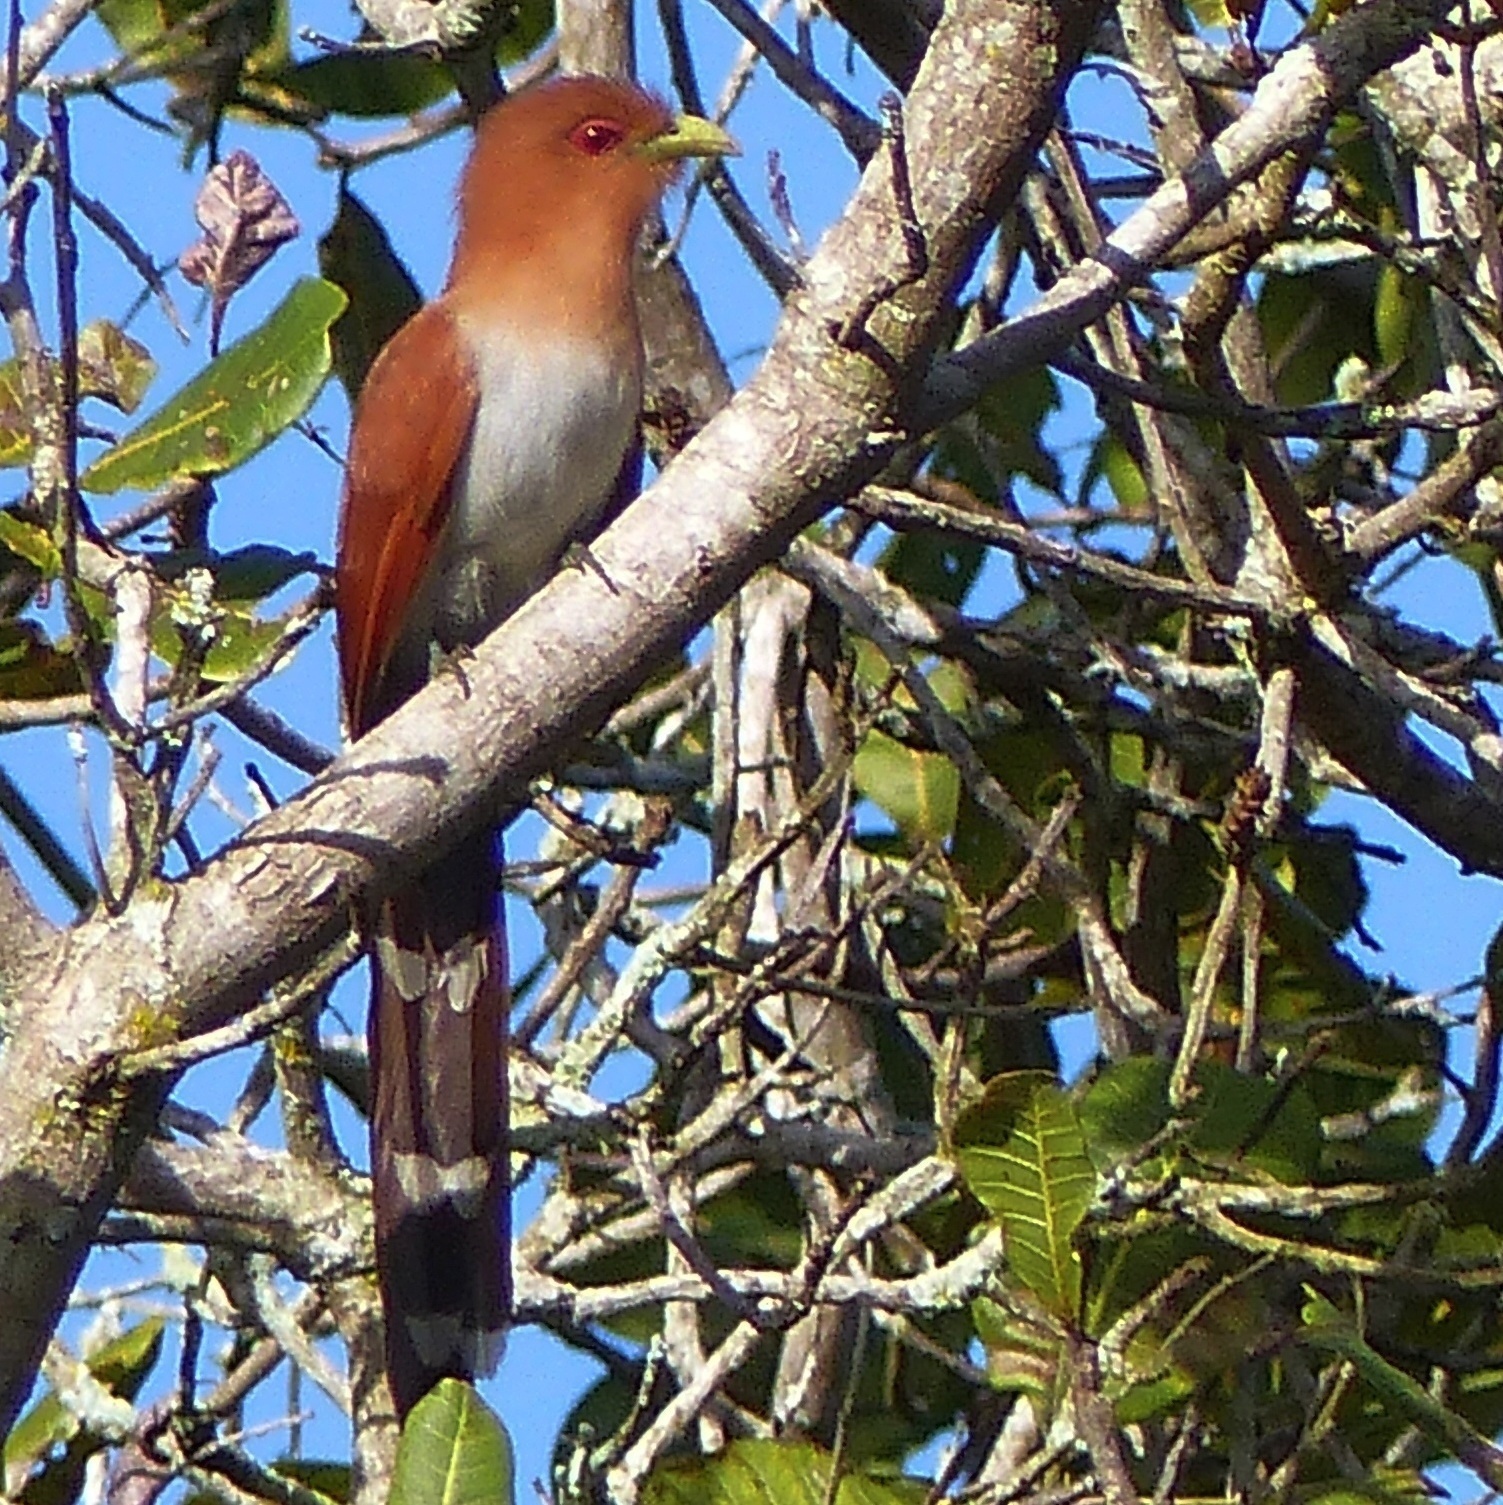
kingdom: Animalia
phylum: Chordata
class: Aves
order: Cuculiformes
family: Cuculidae
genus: Piaya
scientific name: Piaya cayana
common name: Squirrel cuckoo
